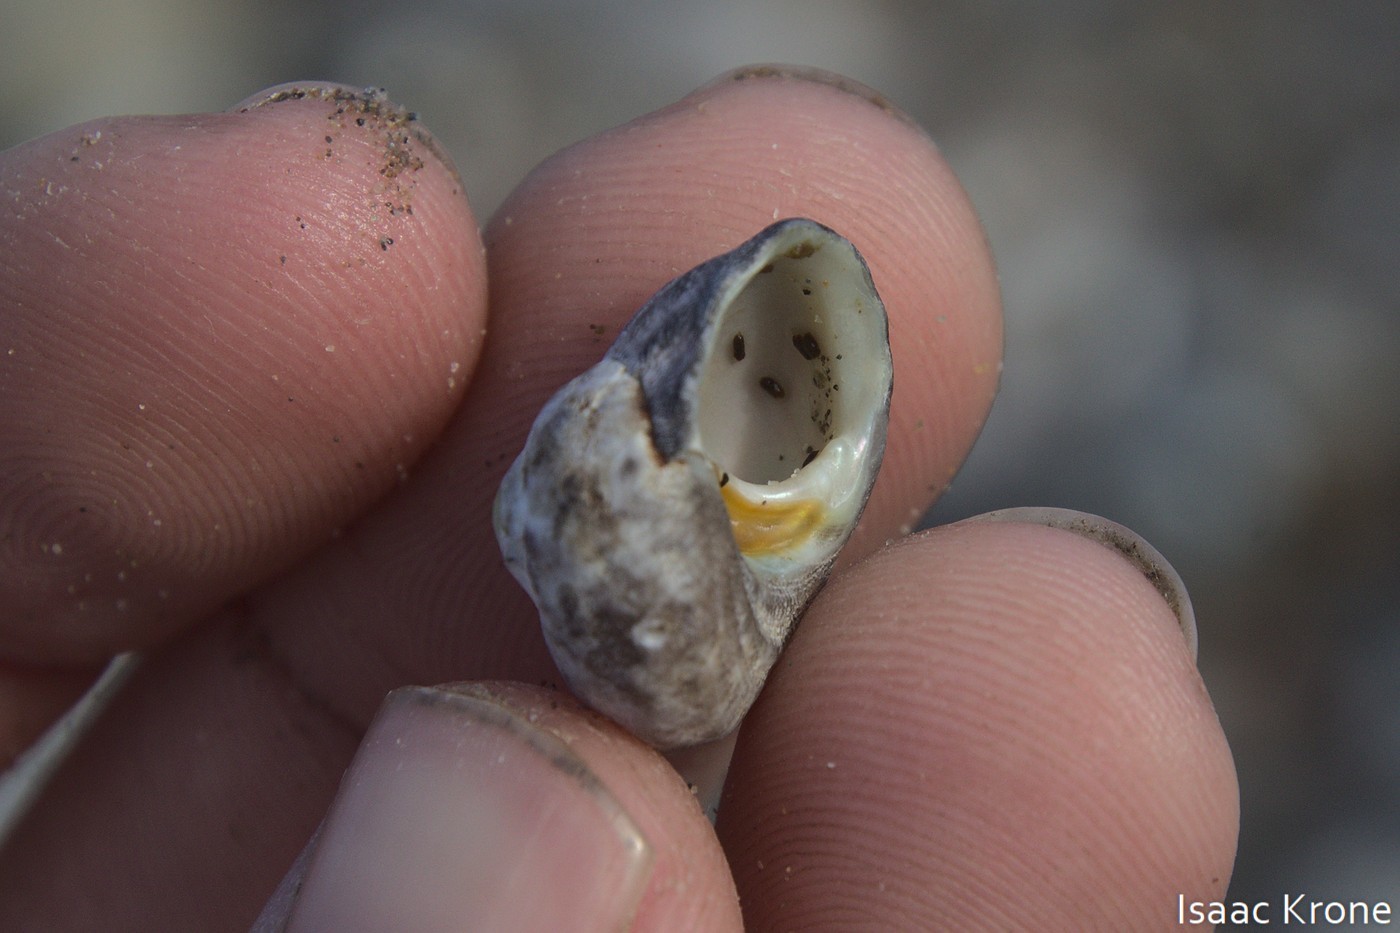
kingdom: Animalia
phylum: Mollusca
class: Gastropoda
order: Trochida
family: Tegulidae
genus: Tegula
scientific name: Tegula aureotincta
